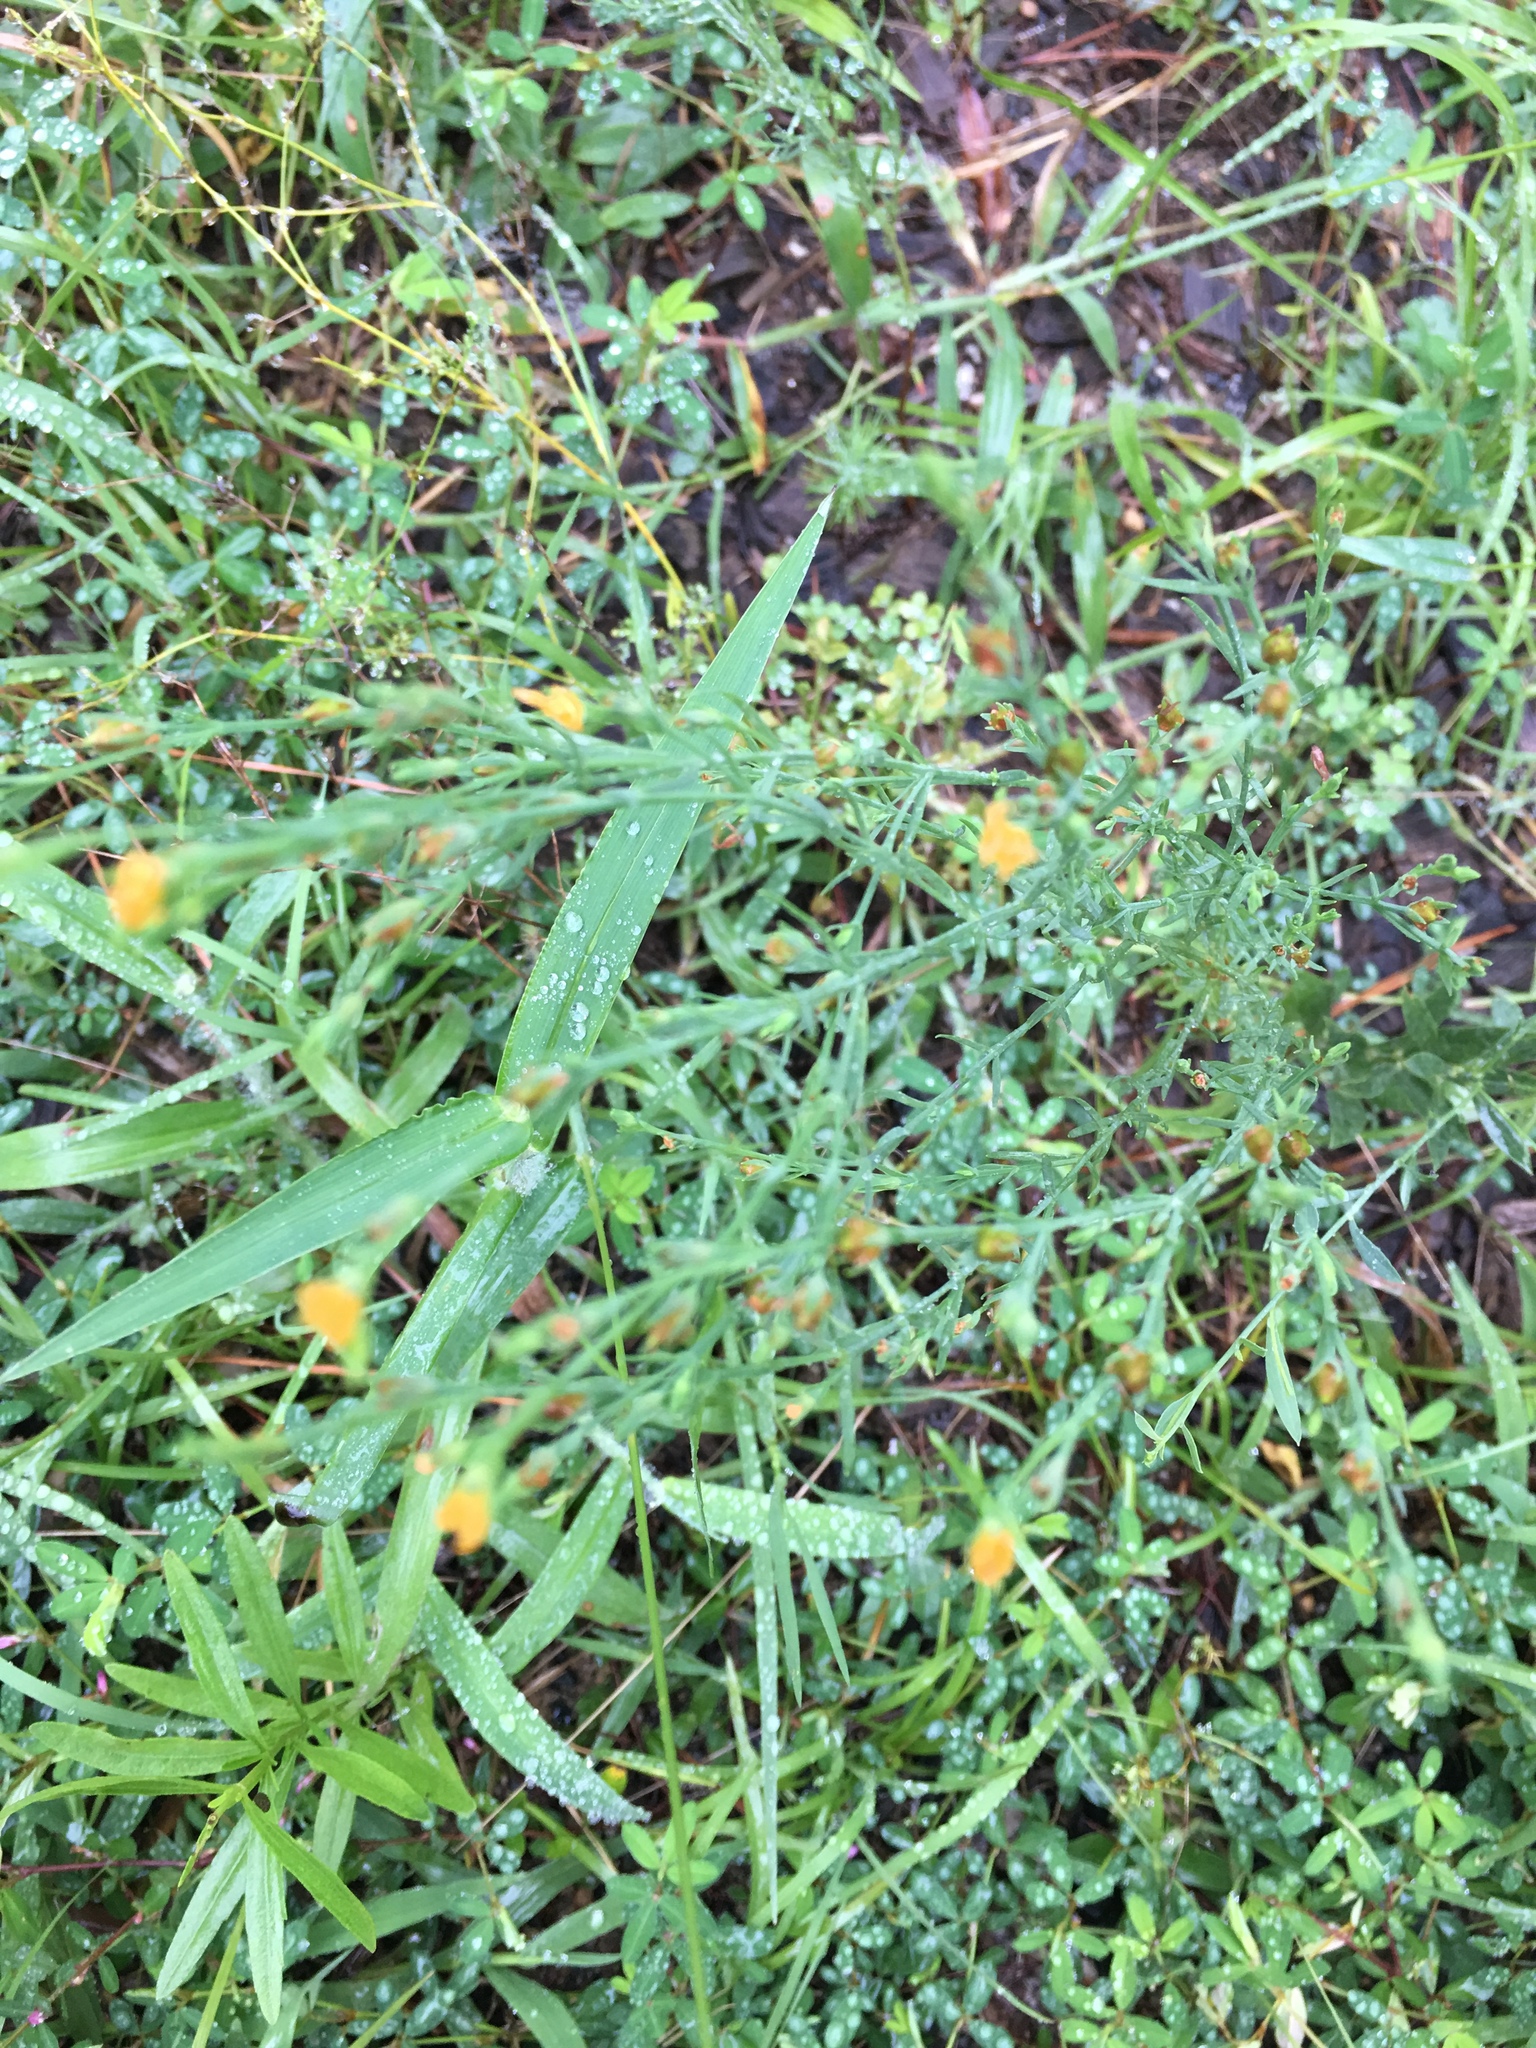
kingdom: Plantae
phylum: Tracheophyta
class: Magnoliopsida
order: Malpighiales
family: Hypericaceae
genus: Hypericum
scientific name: Hypericum gentianoides
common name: Gentian-leaved st. john's-wort
